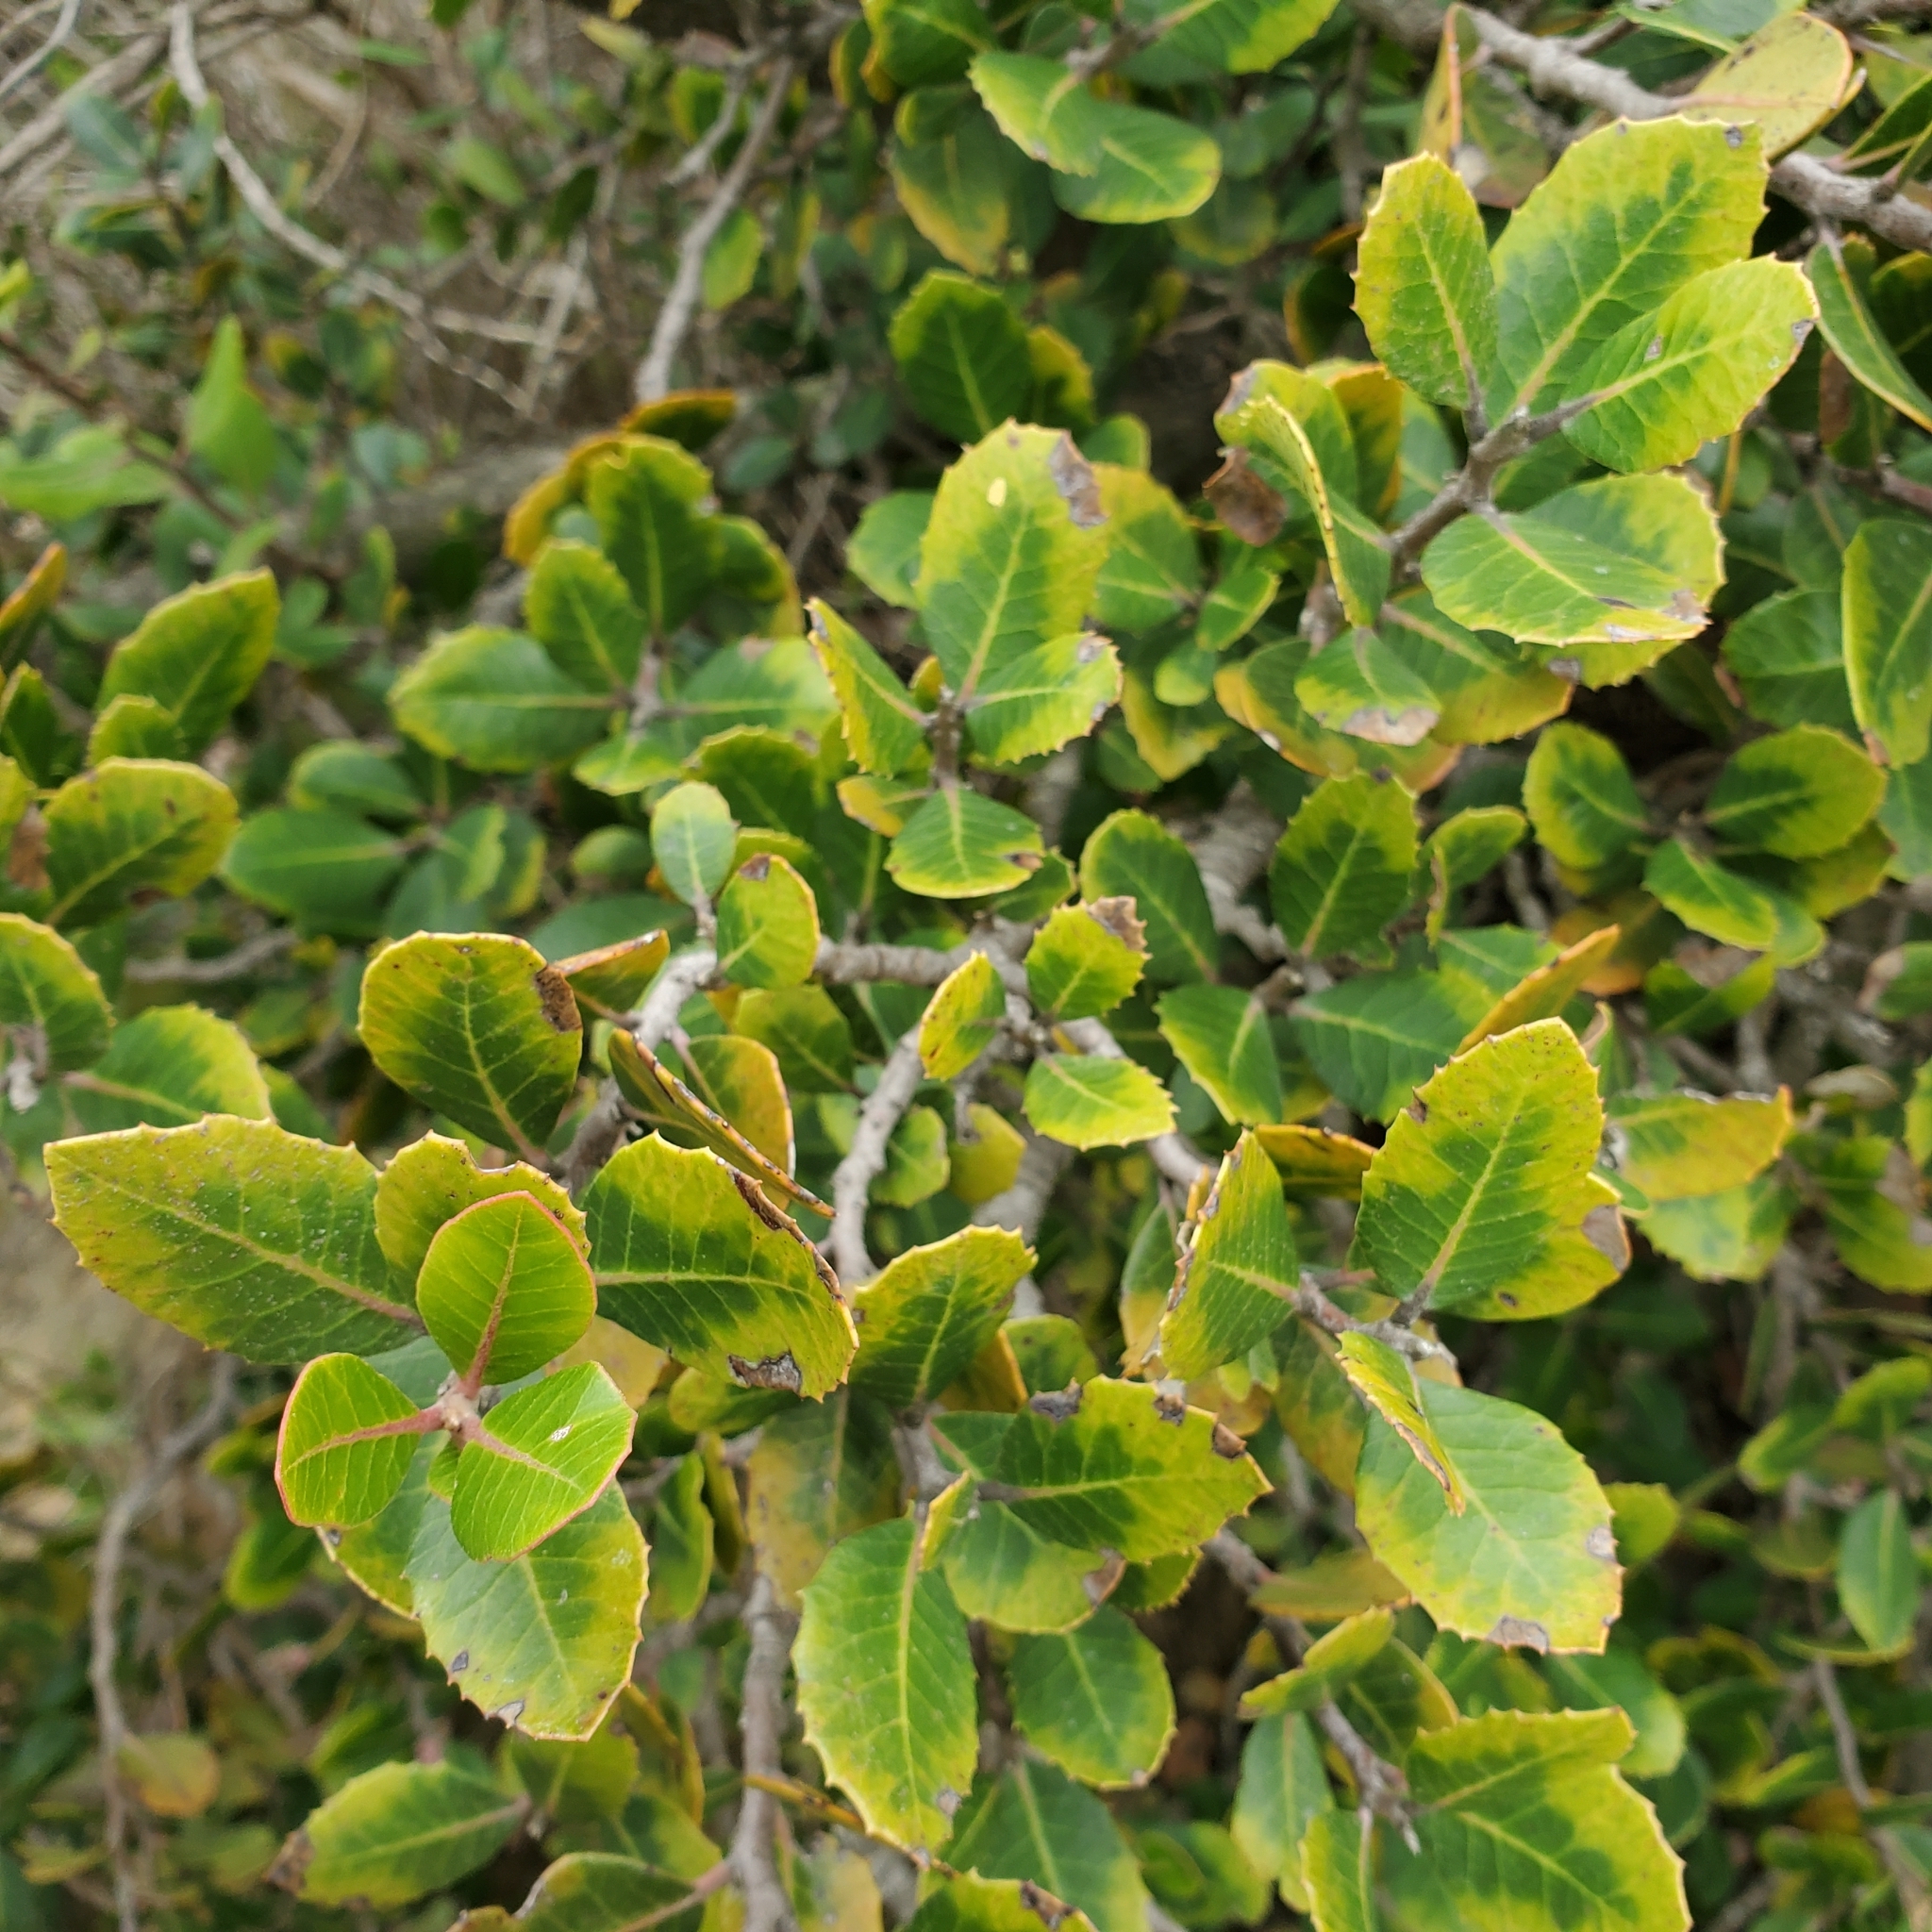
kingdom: Plantae
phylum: Tracheophyta
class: Magnoliopsida
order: Sapindales
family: Anacardiaceae
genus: Rhus
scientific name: Rhus integrifolia
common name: Lemonade sumac
